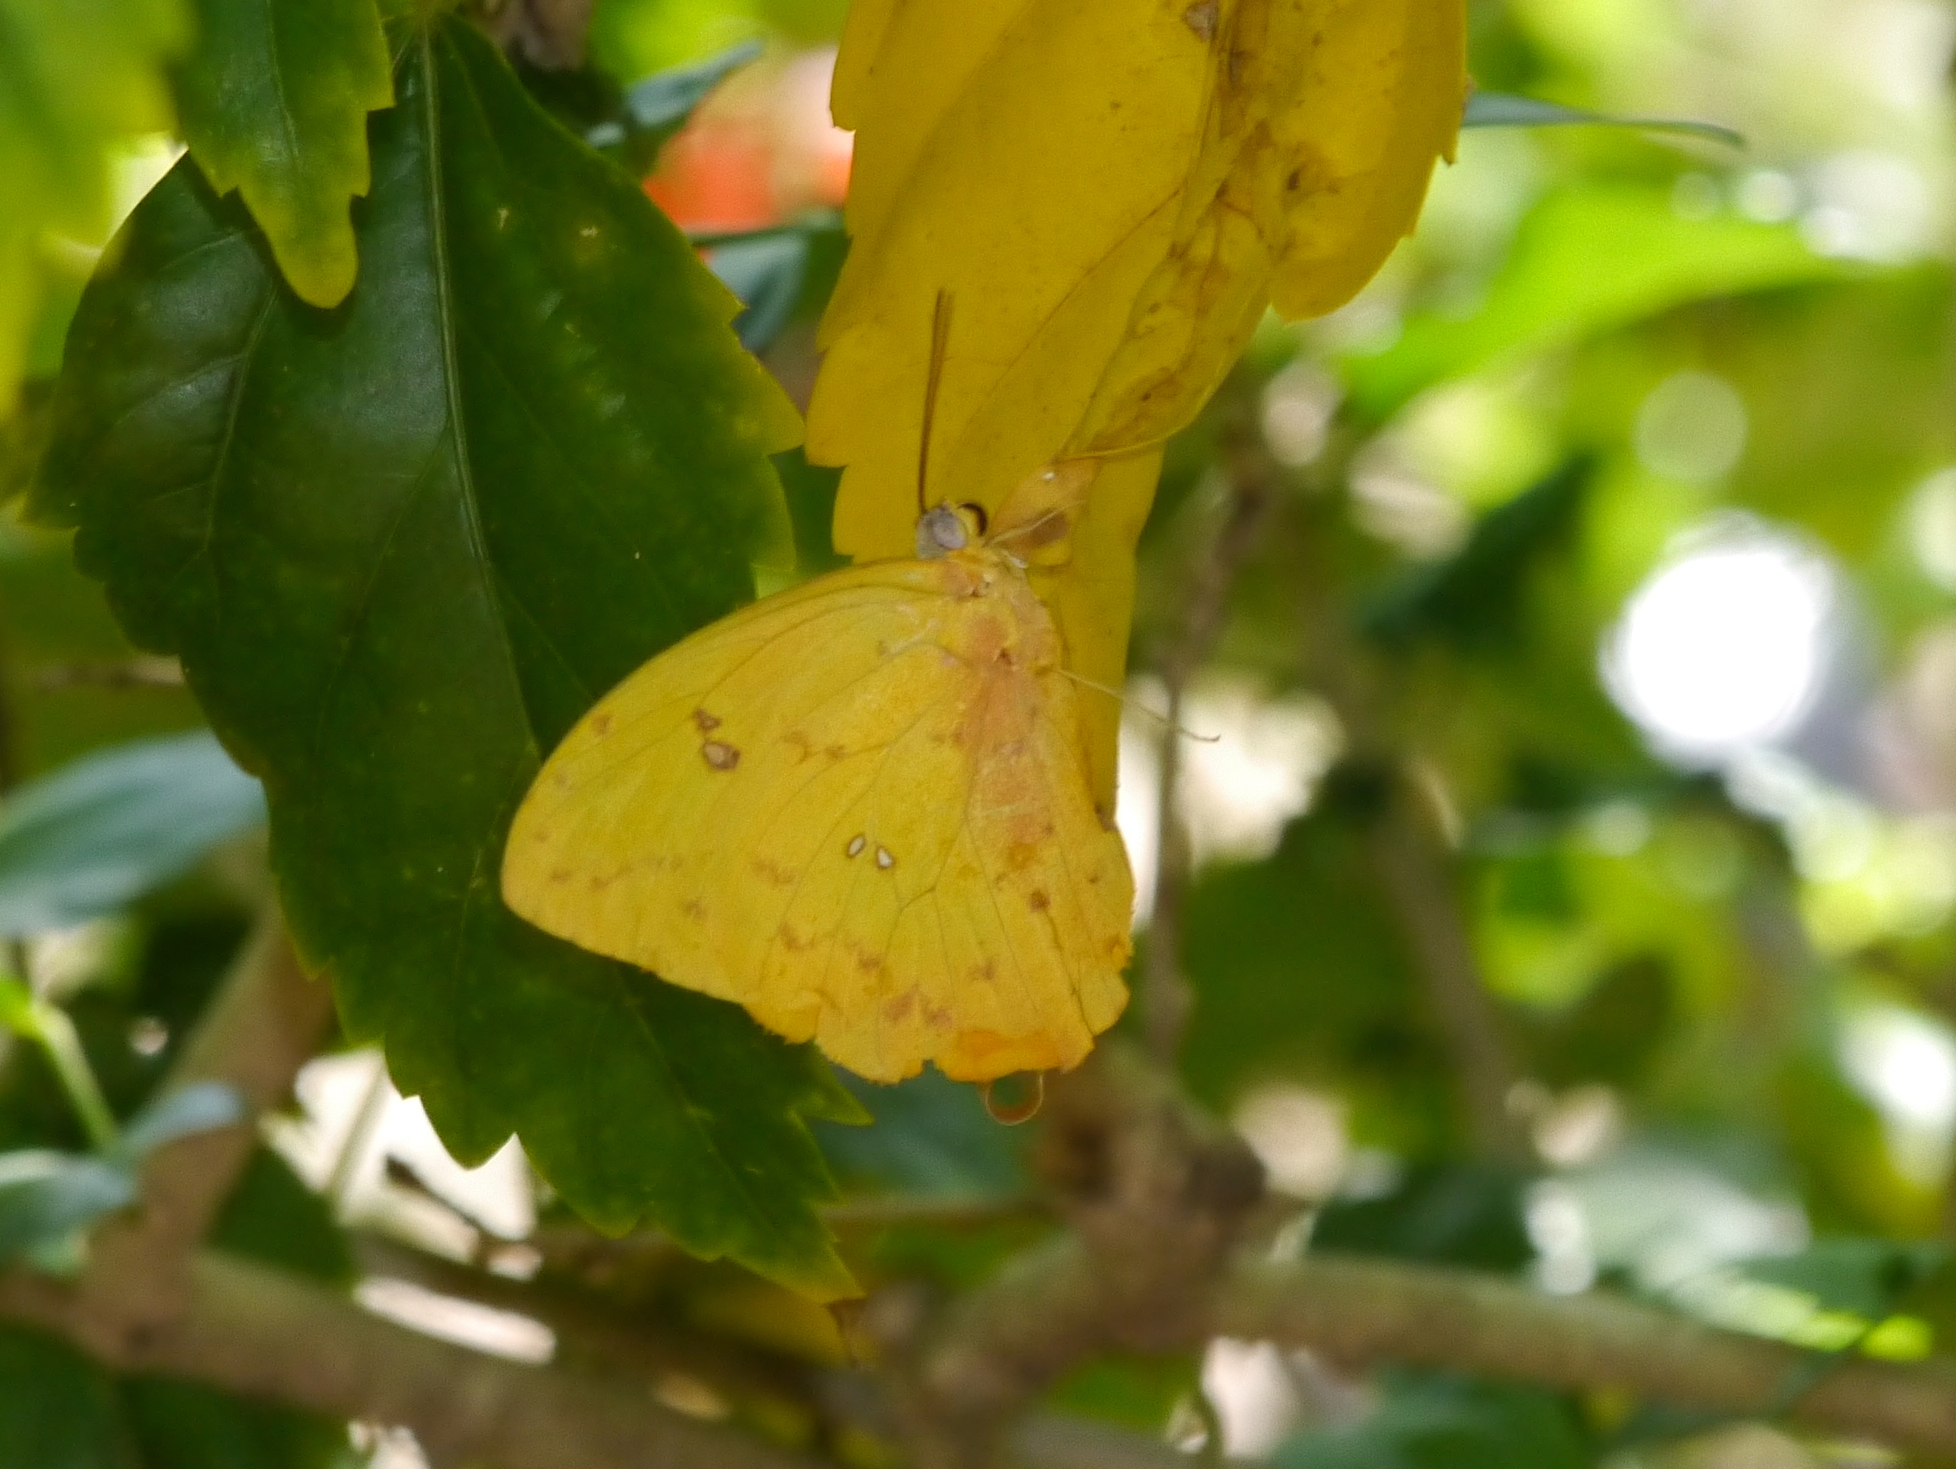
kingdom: Animalia
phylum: Arthropoda
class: Insecta
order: Lepidoptera
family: Pieridae
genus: Phoebis
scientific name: Phoebis philea
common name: Orange-barred giant sulphur
